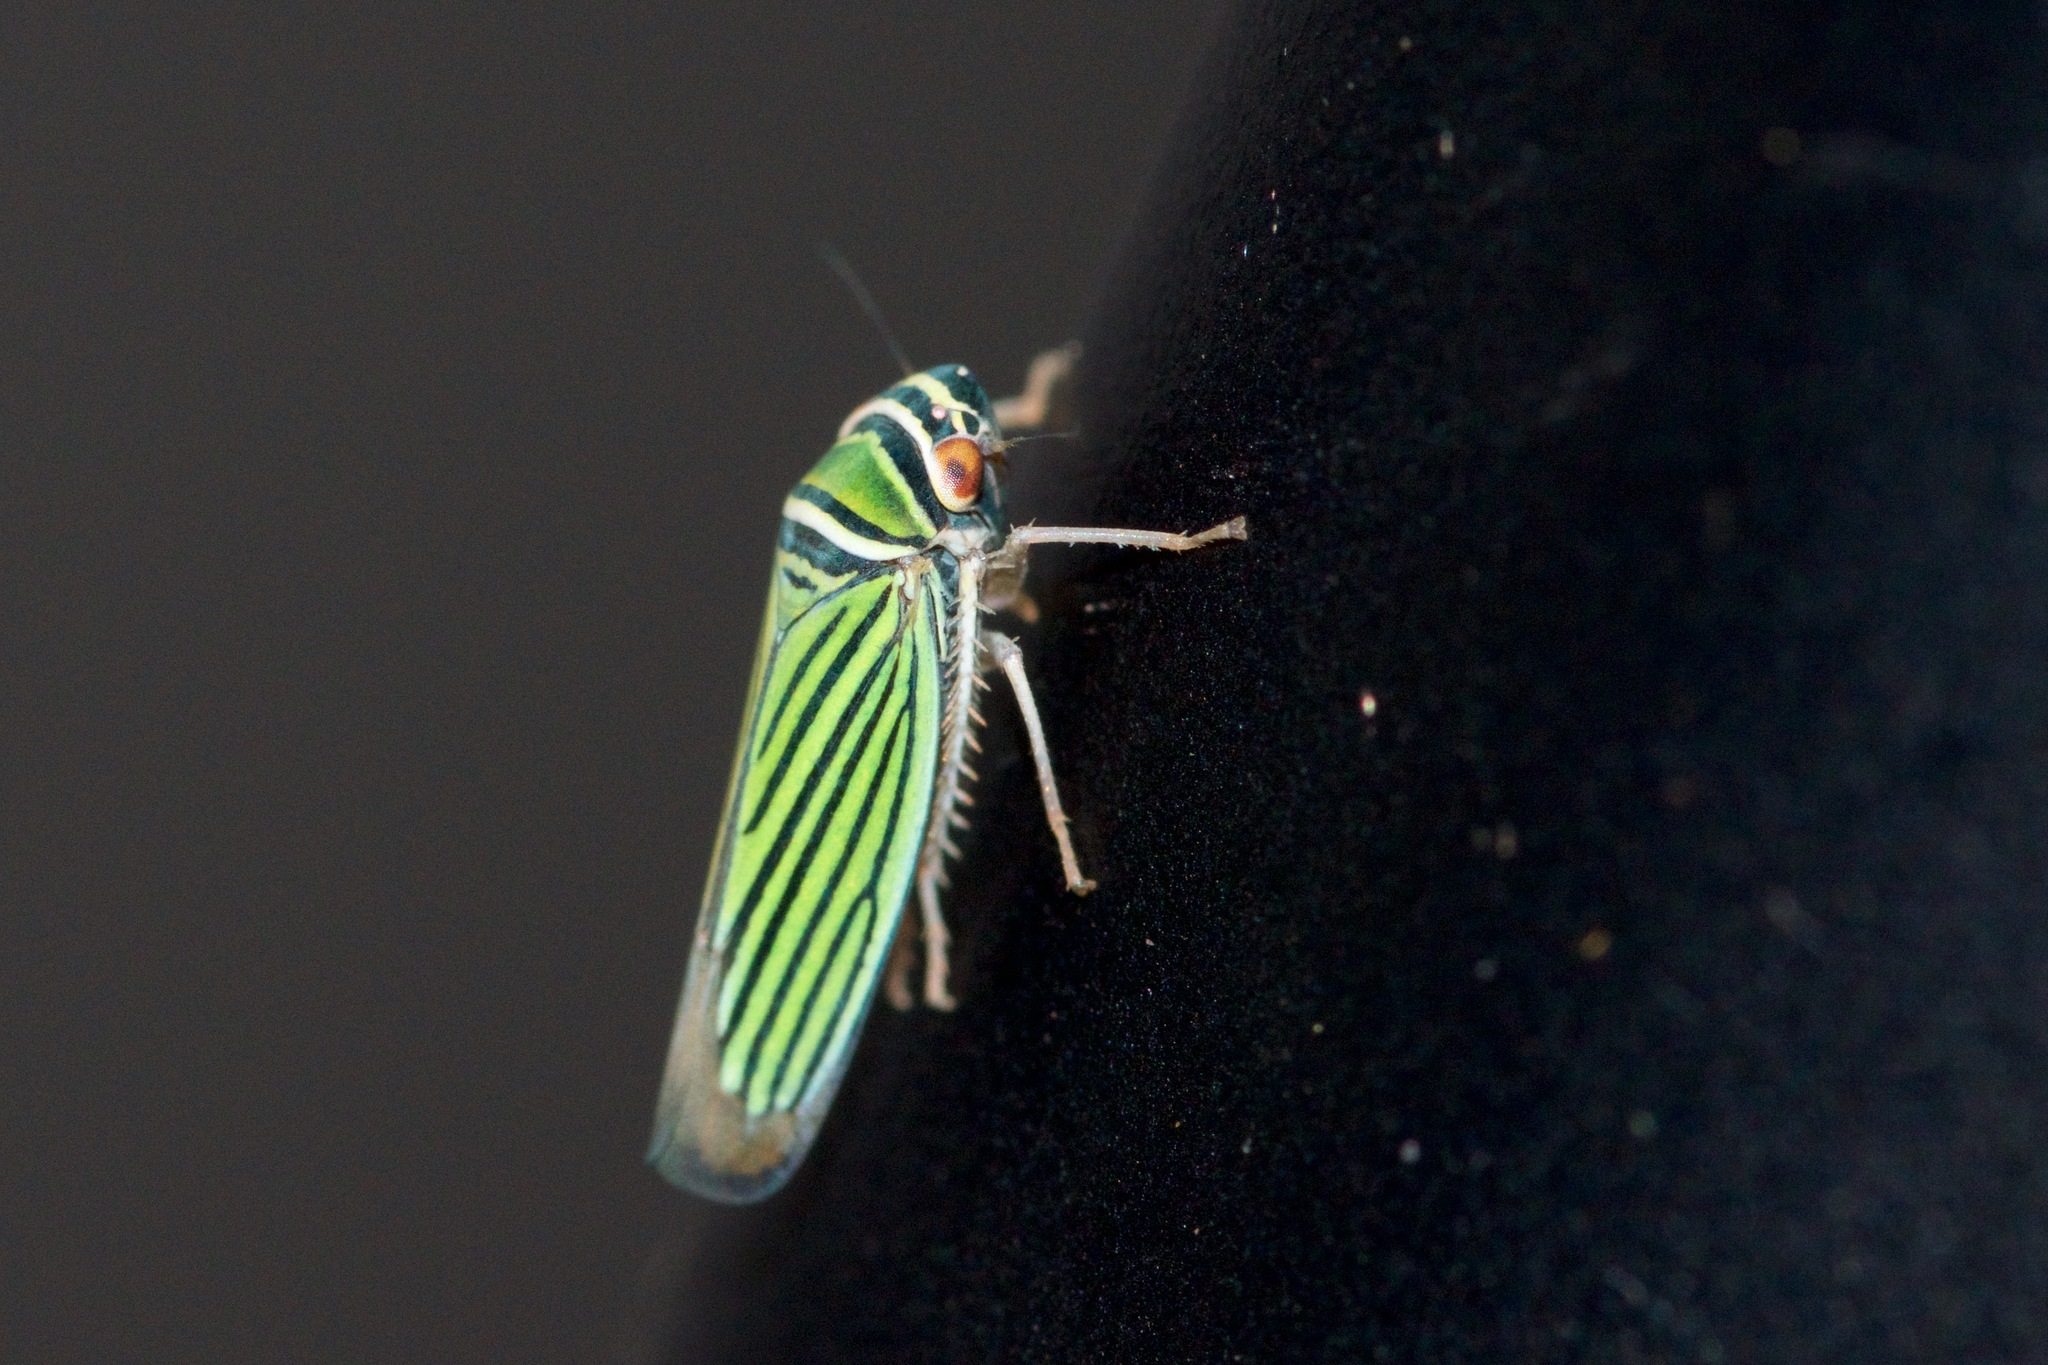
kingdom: Animalia
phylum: Arthropoda
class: Insecta
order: Hemiptera
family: Cicadellidae
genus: Tylozygus
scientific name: Tylozygus bifidus
